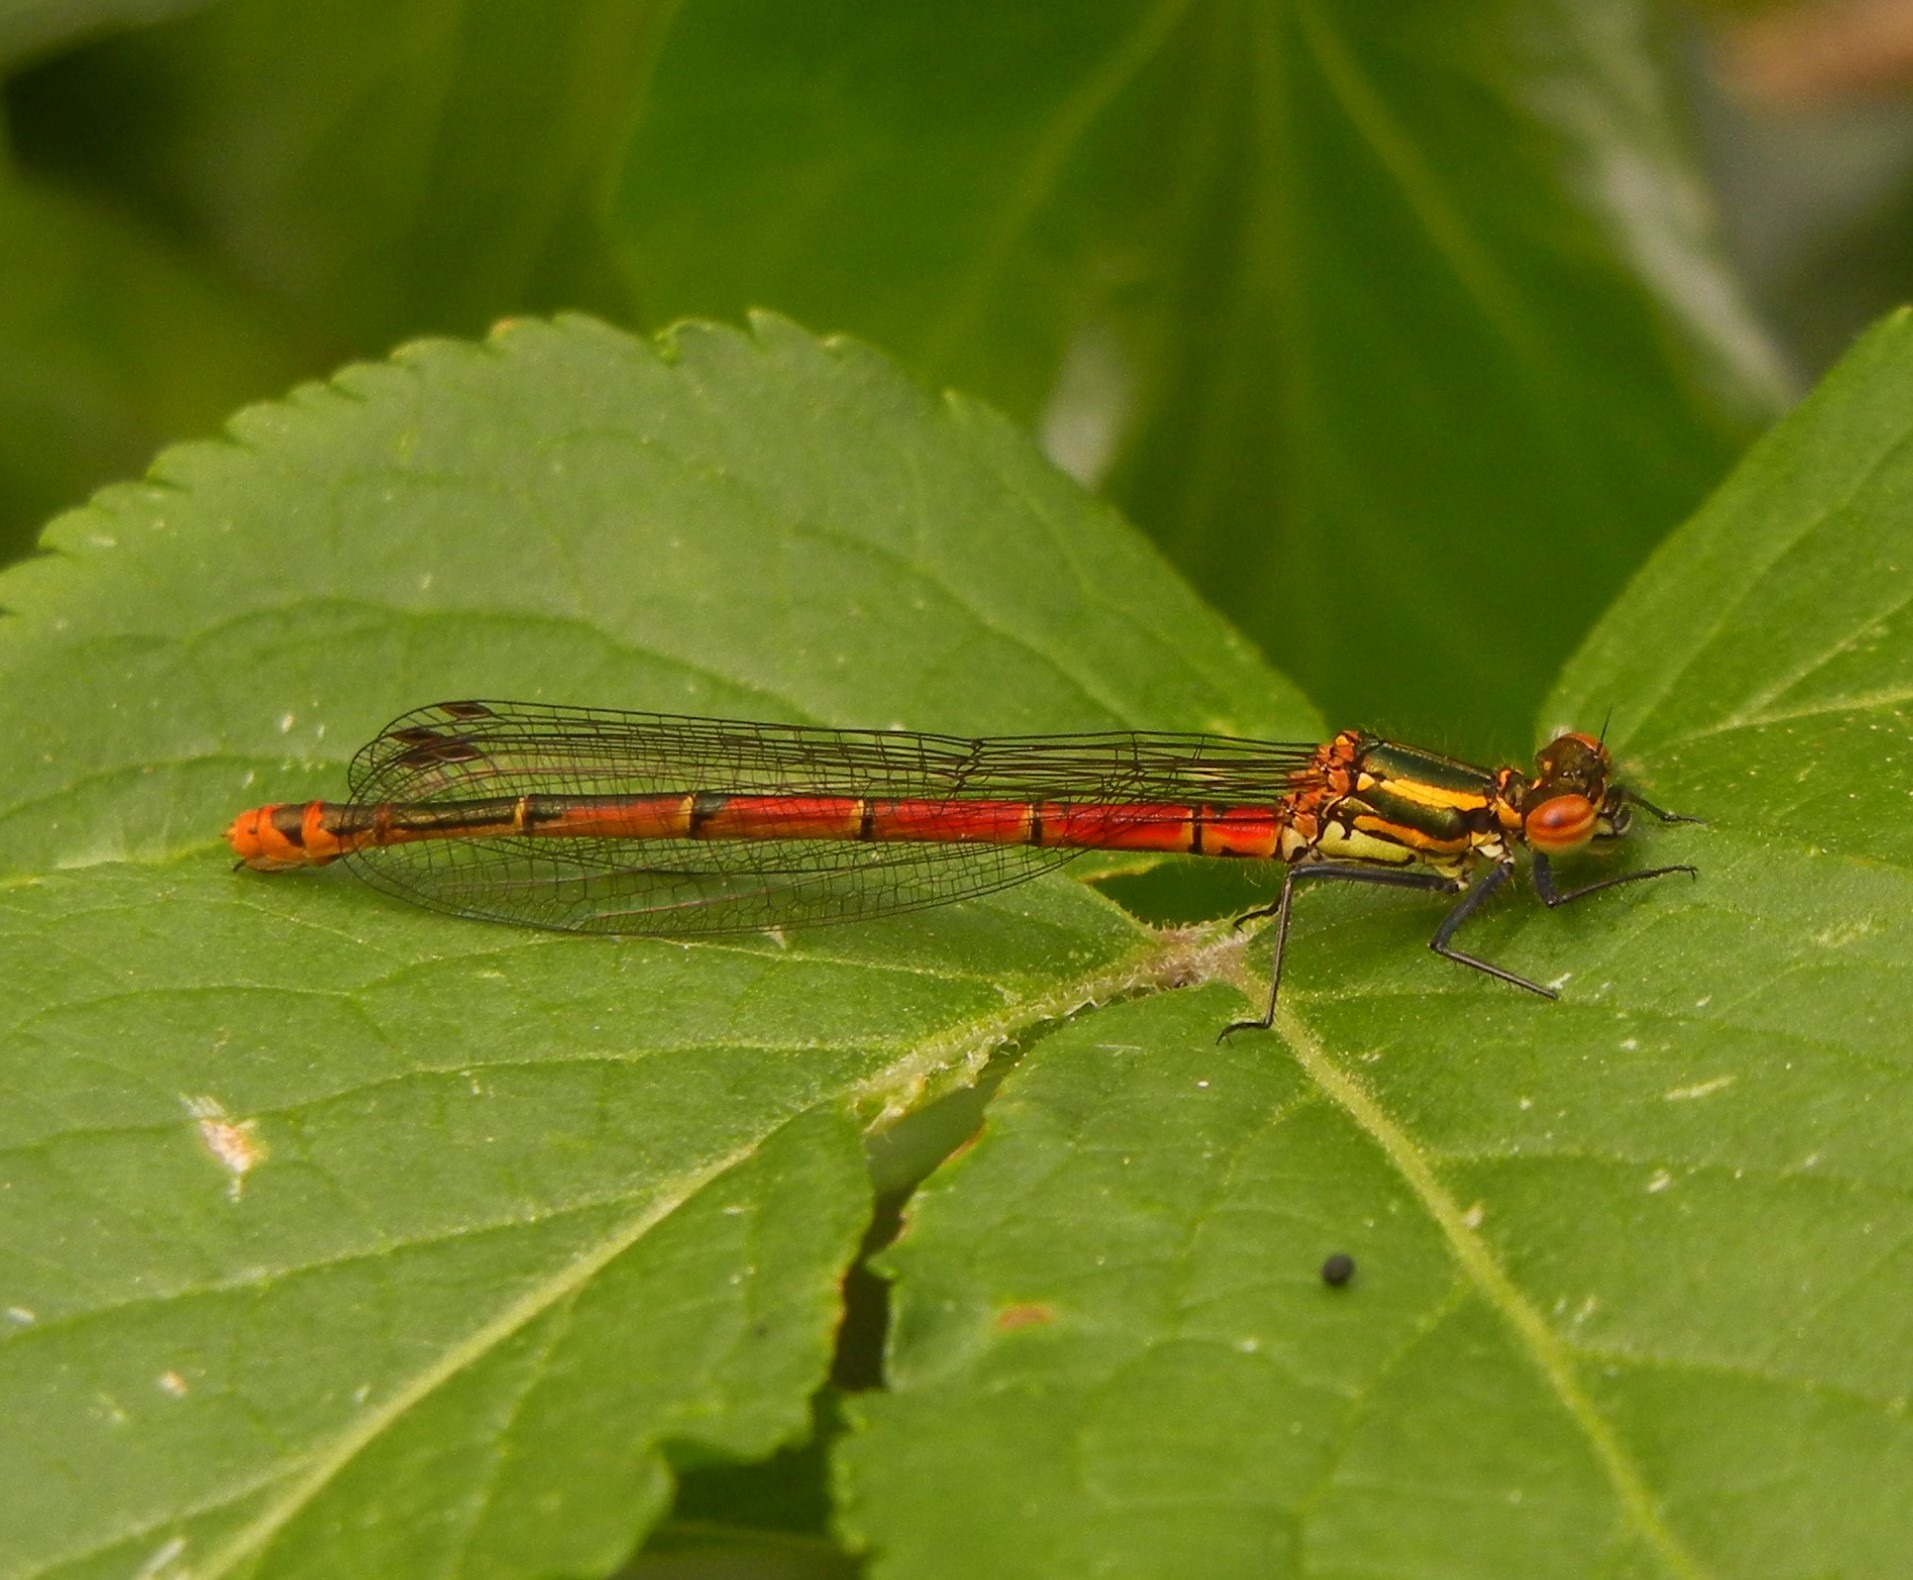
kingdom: Animalia
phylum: Arthropoda
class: Insecta
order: Odonata
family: Coenagrionidae
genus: Pyrrhosoma
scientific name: Pyrrhosoma nymphula
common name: Large red damsel
